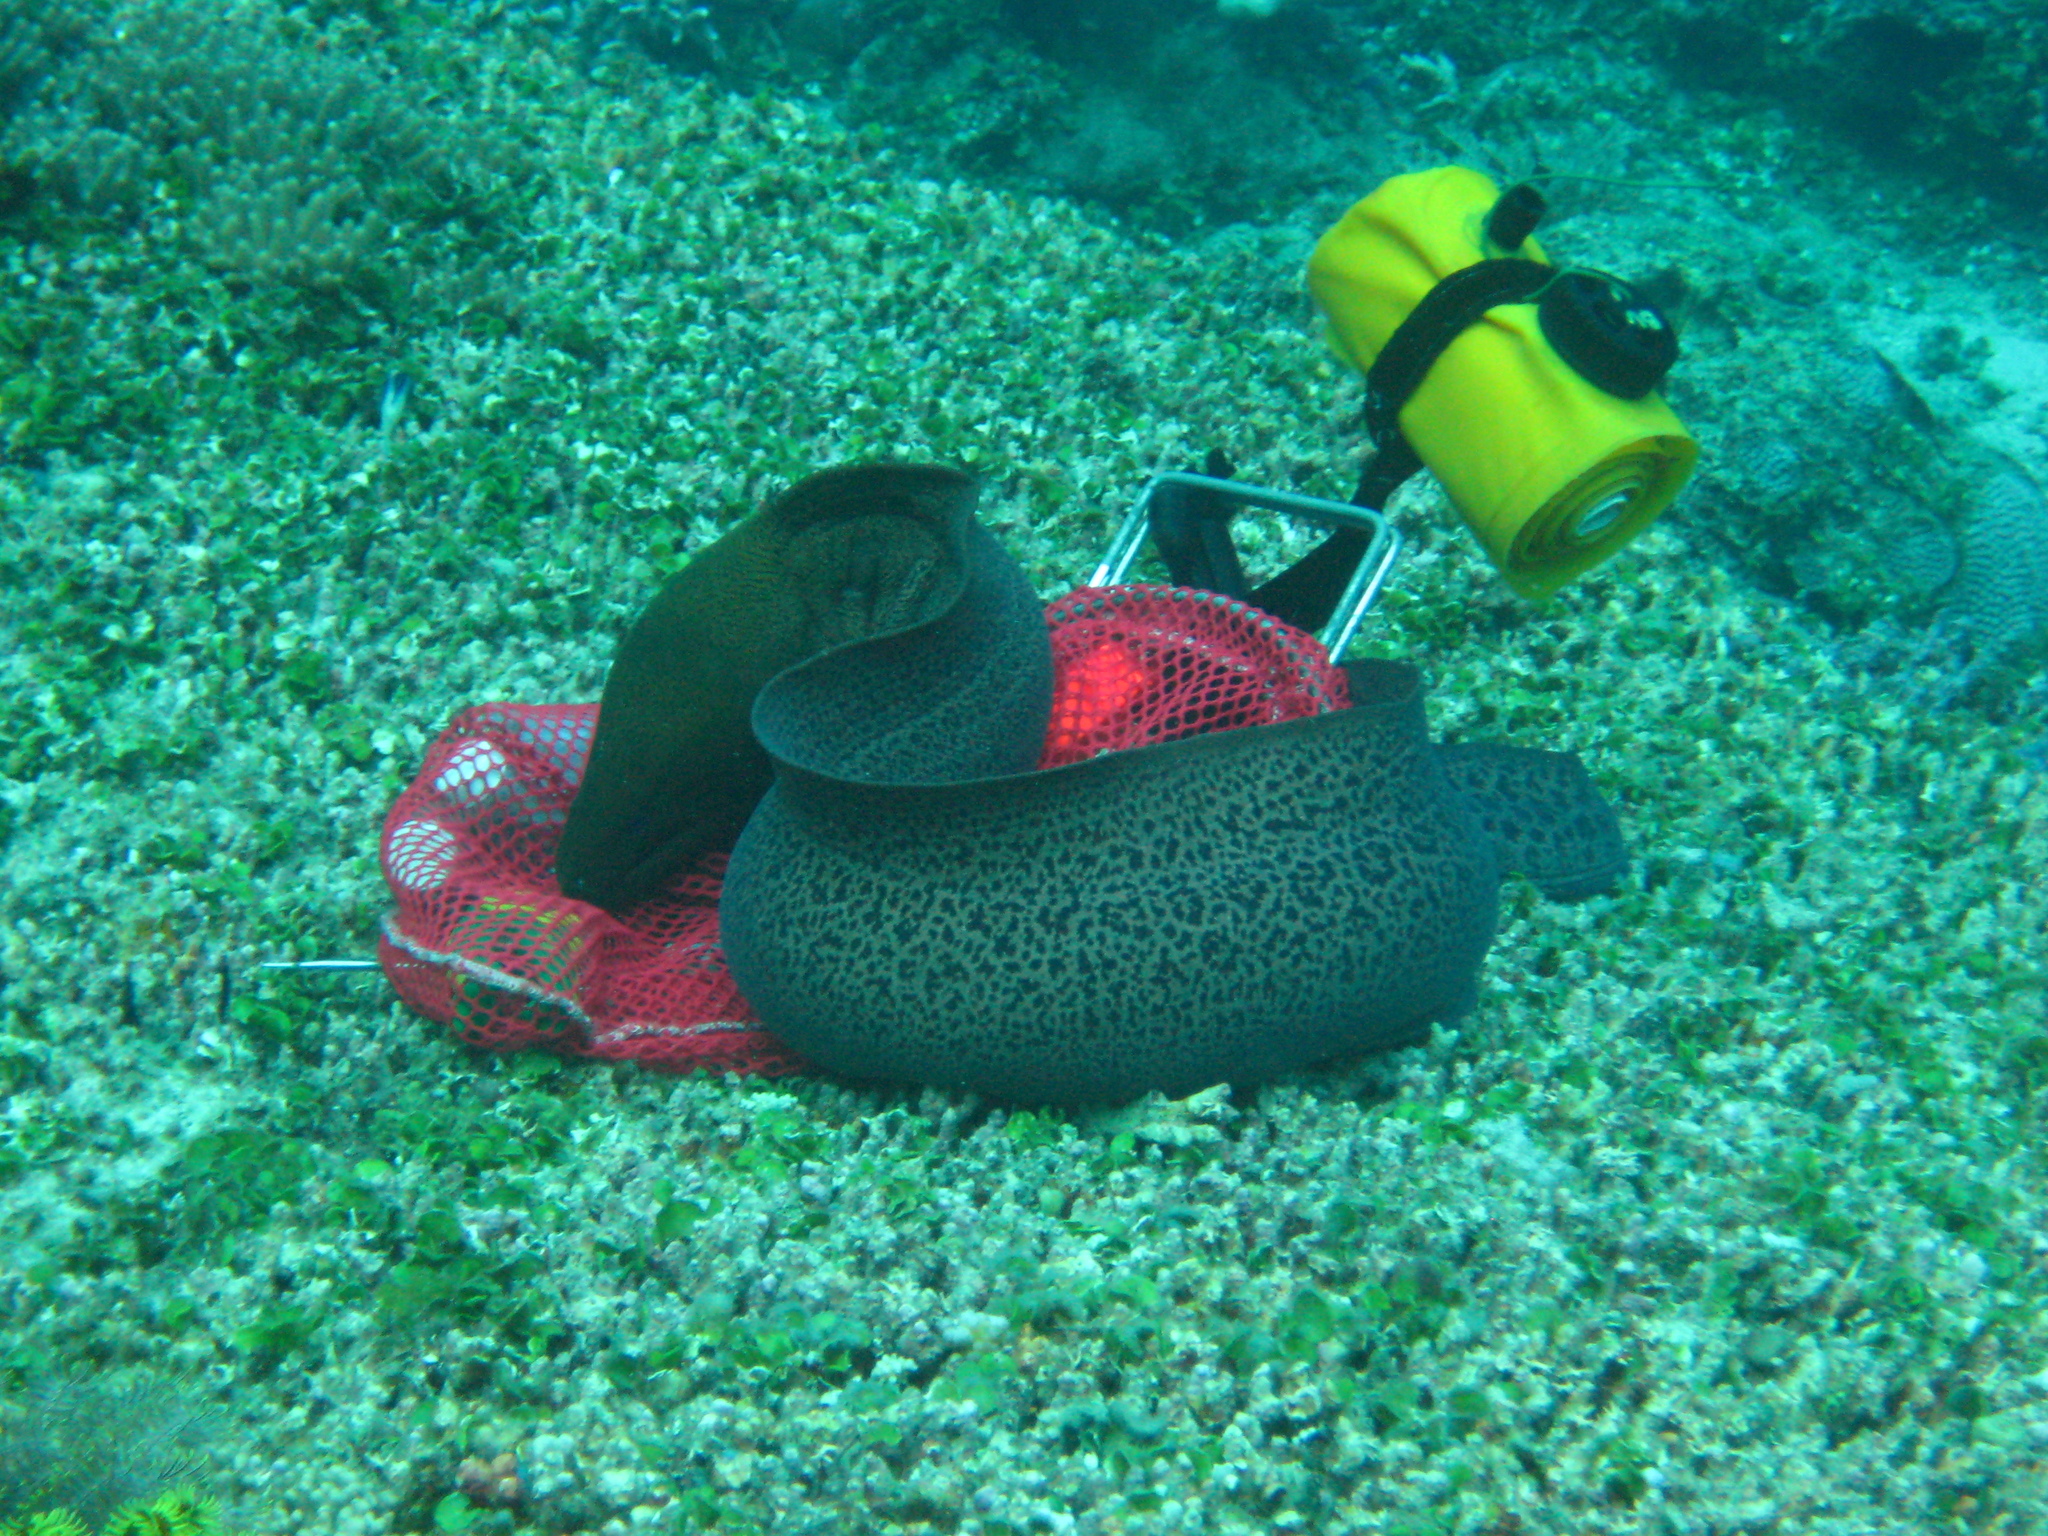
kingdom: Animalia
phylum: Chordata
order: Anguilliformes
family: Muraenidae
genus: Gymnothorax
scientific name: Gymnothorax javanicus
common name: Giant moray
